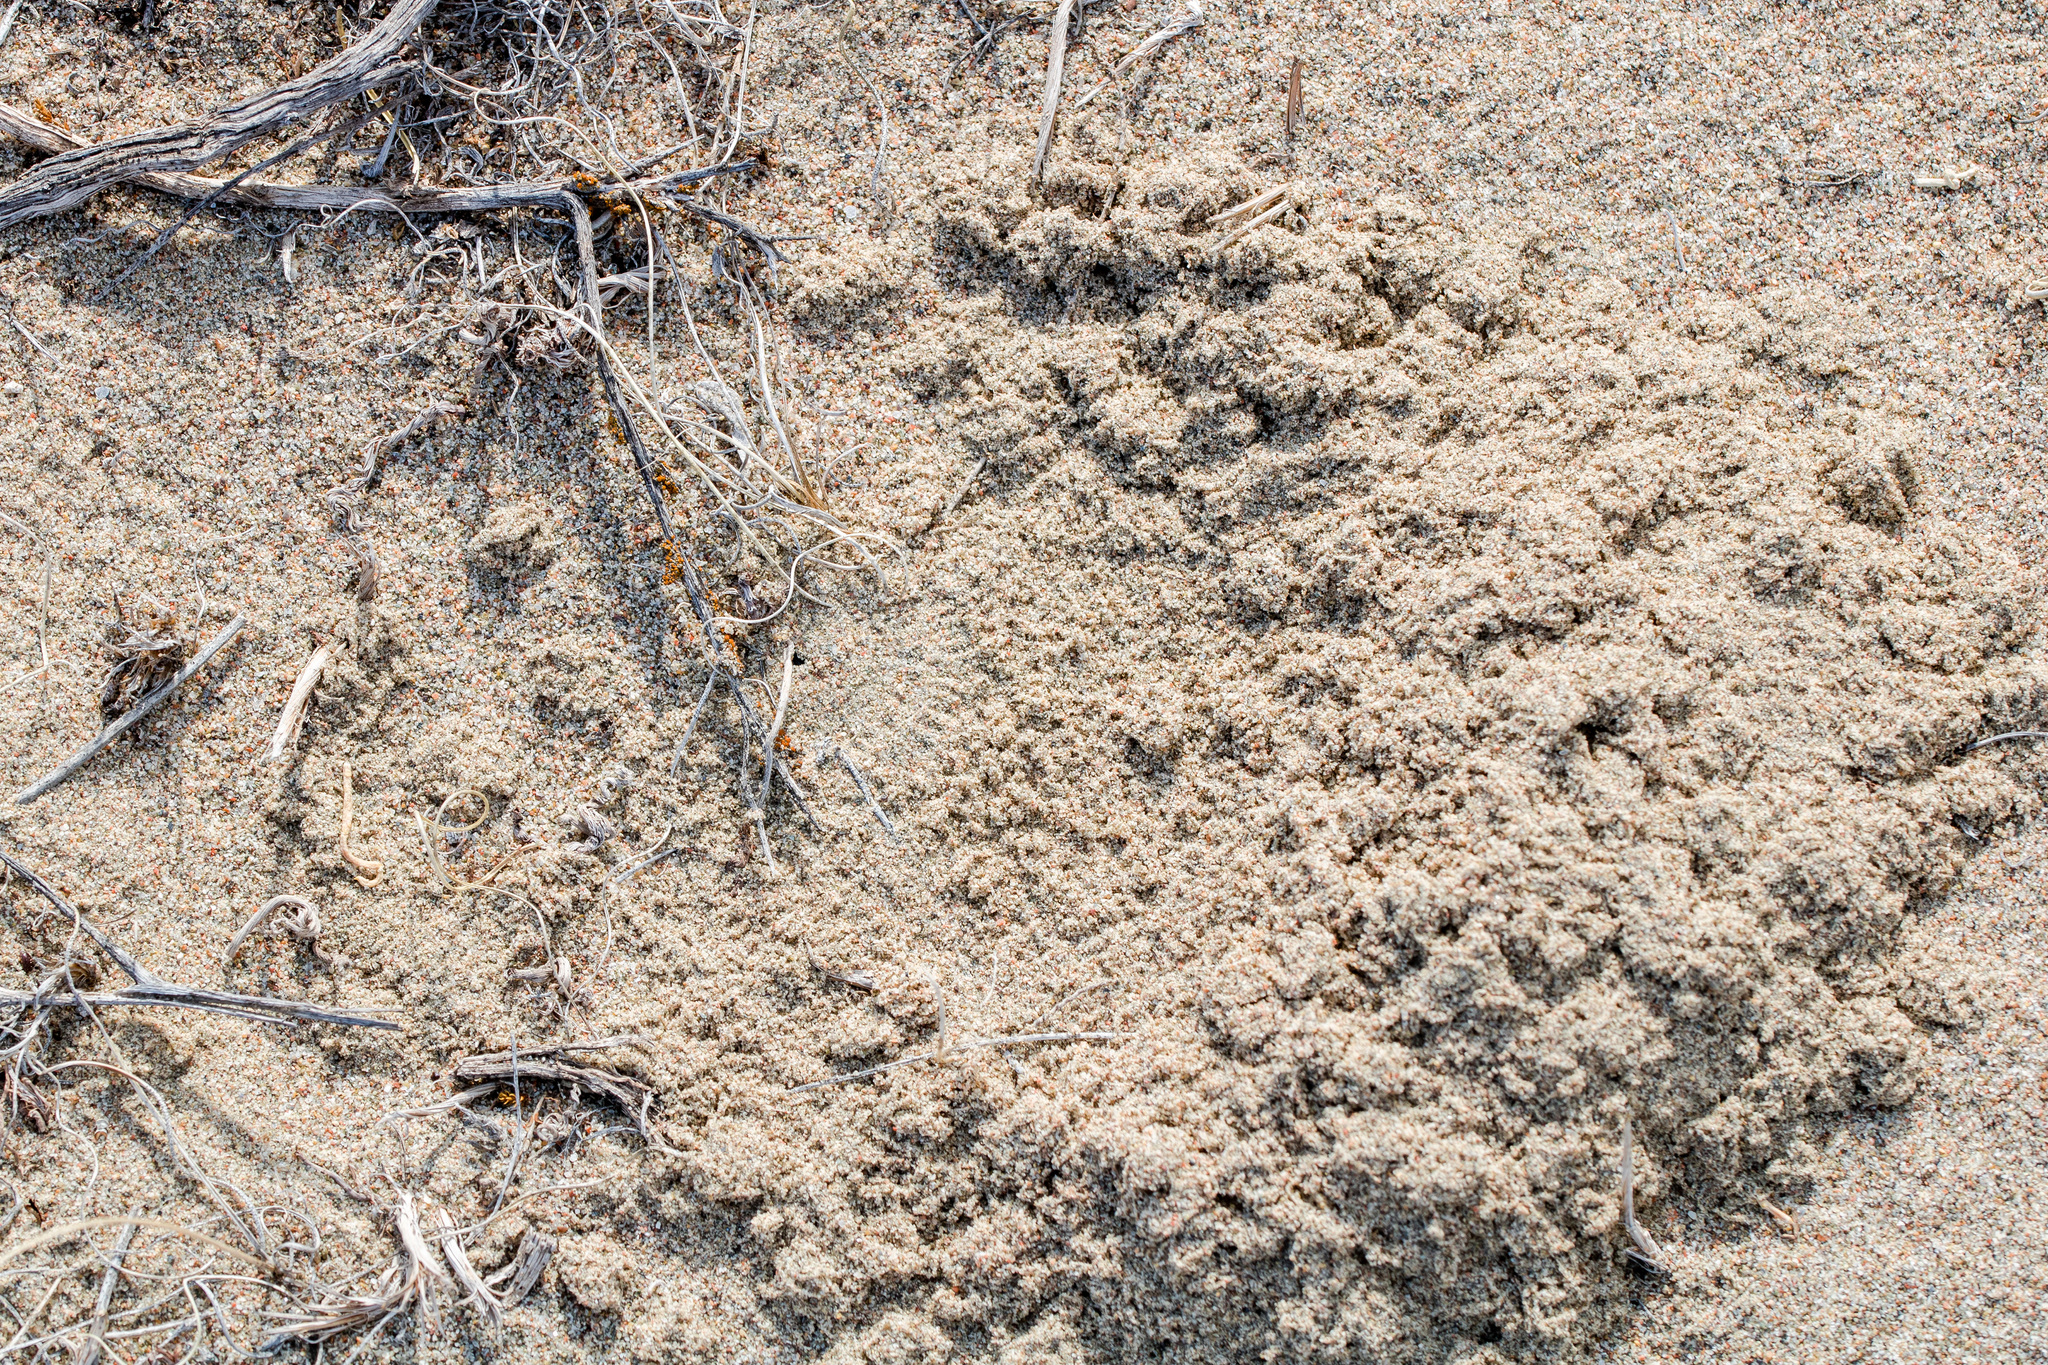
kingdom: Animalia
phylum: Arthropoda
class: Arachnida
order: Araneae
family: Lycosidae
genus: Karakumosa
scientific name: Karakumosa alticeps
